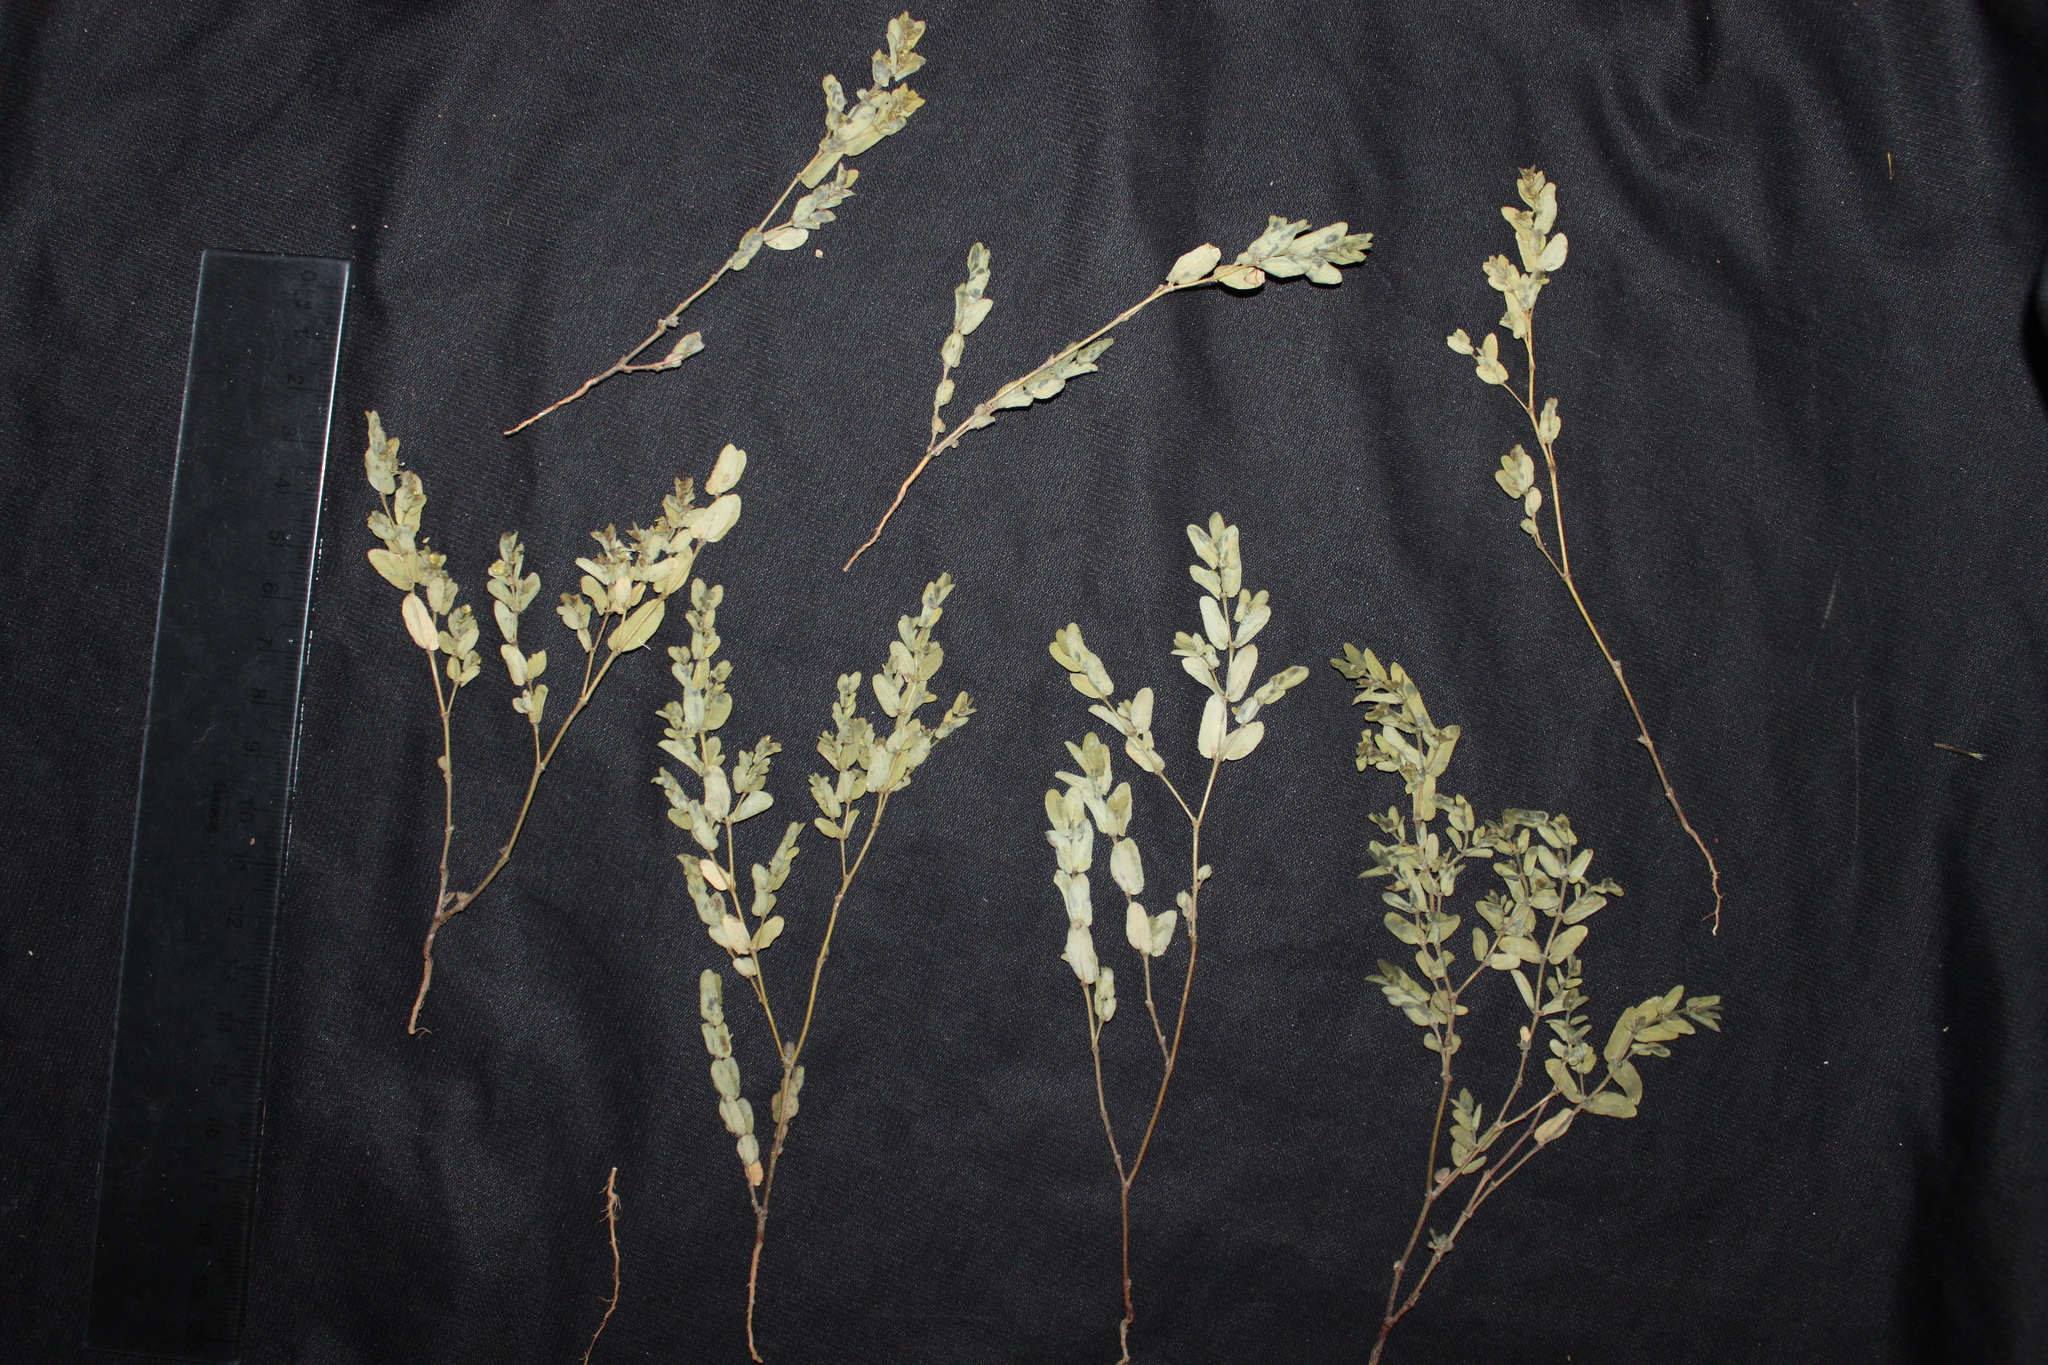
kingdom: Plantae
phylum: Tracheophyta
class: Magnoliopsida
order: Malpighiales
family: Euphorbiaceae
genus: Euphorbia
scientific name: Euphorbia eichleri
